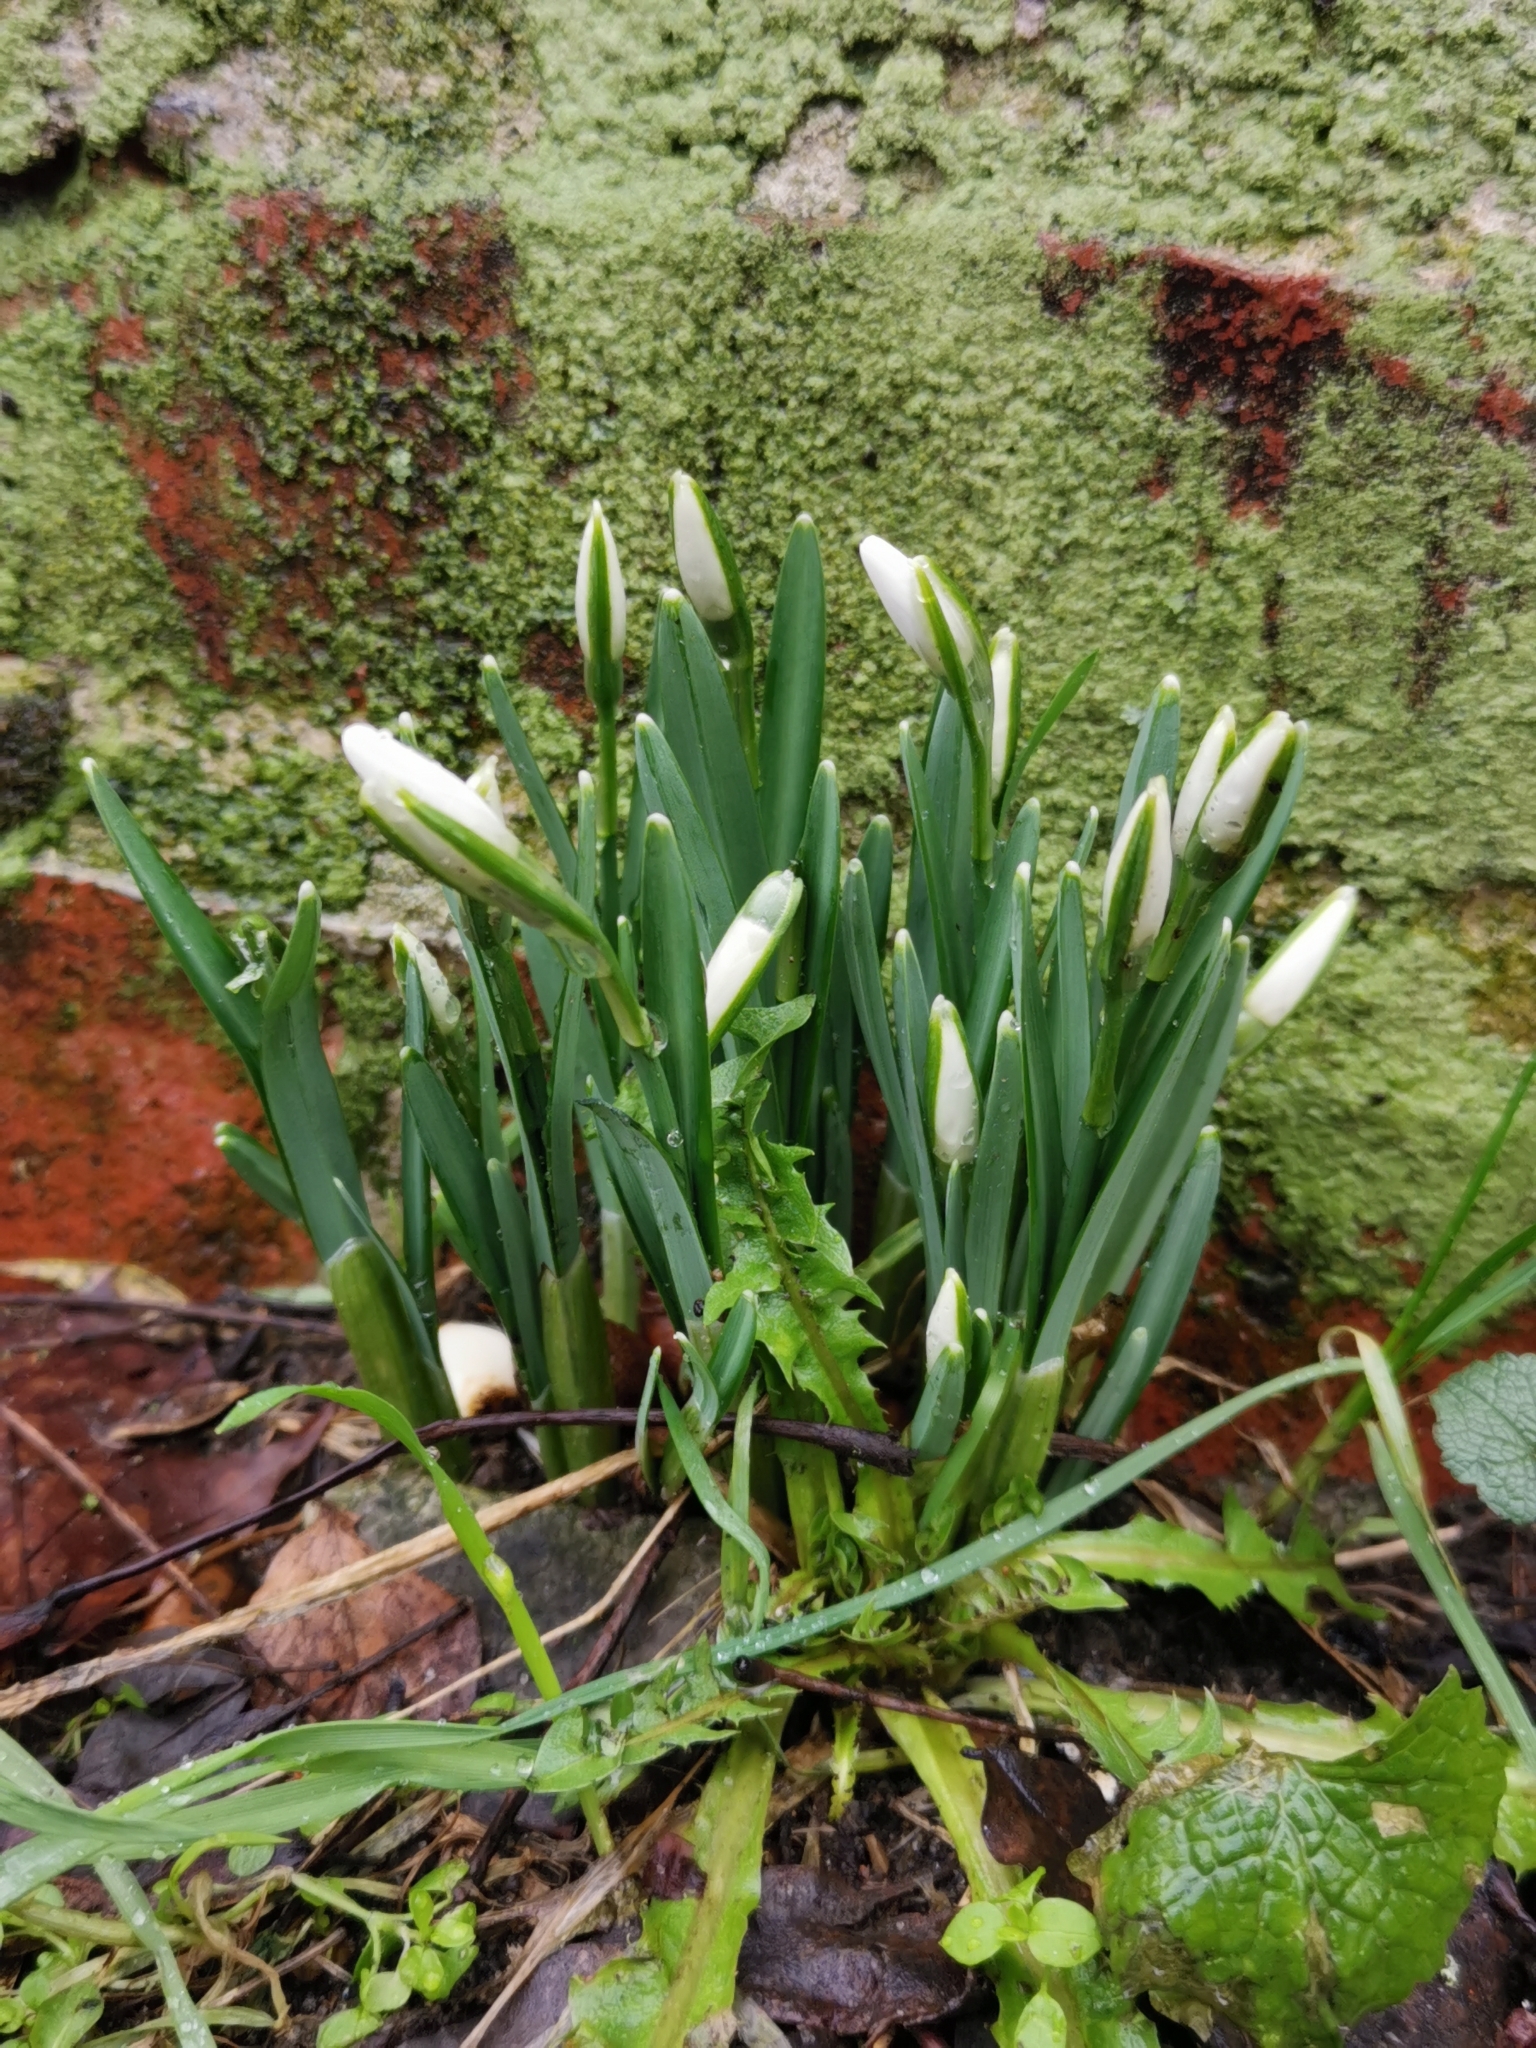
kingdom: Plantae
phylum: Tracheophyta
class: Liliopsida
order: Asparagales
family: Amaryllidaceae
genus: Galanthus
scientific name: Galanthus nivalis
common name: Snowdrop
